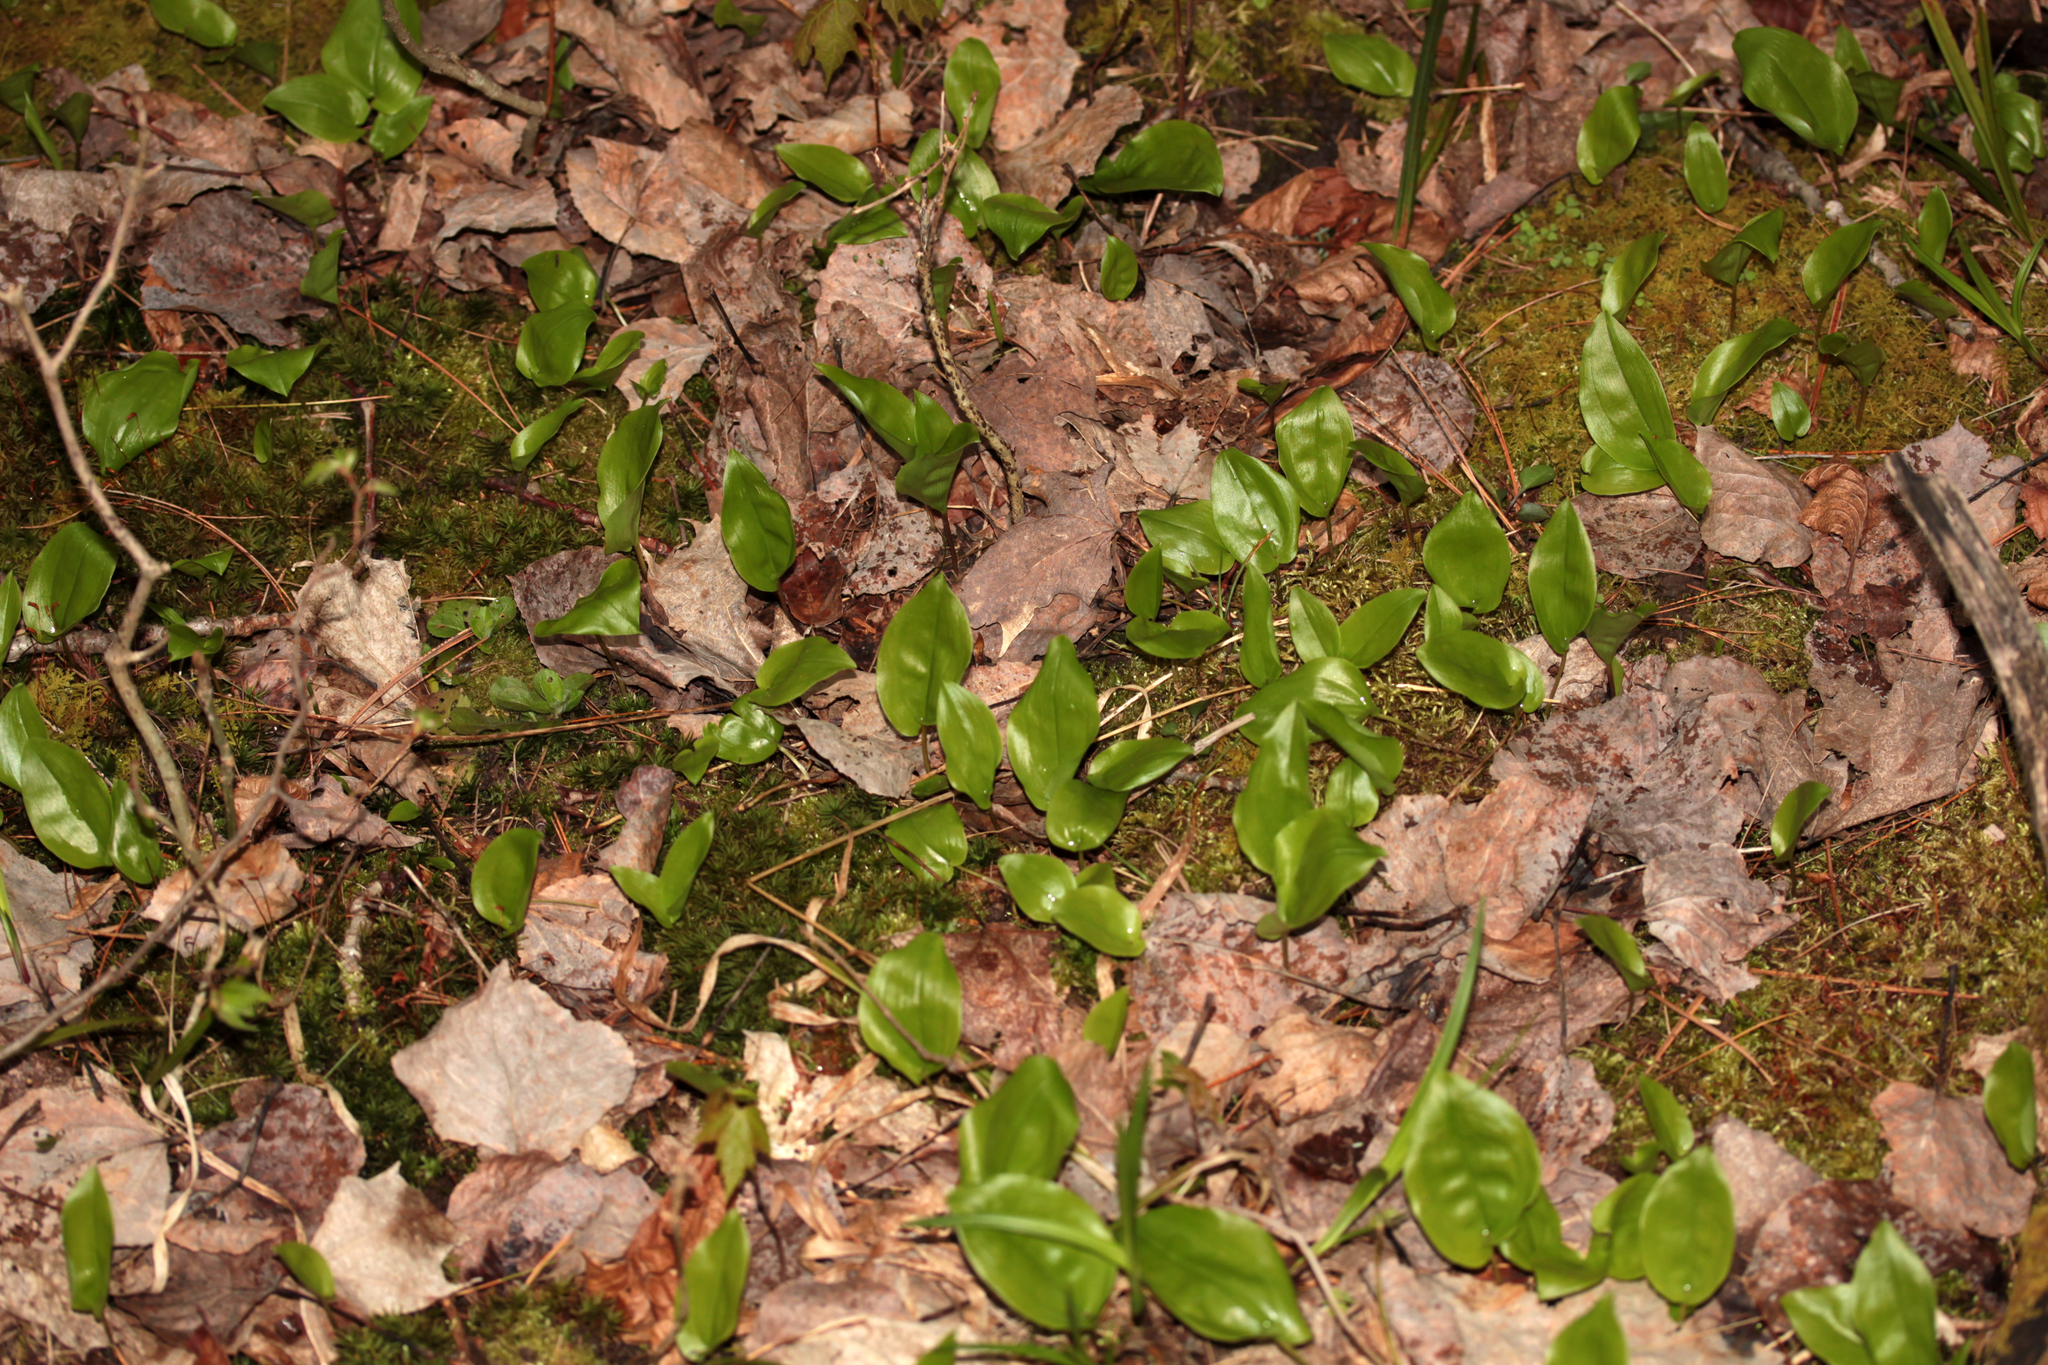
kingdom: Plantae
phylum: Tracheophyta
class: Liliopsida
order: Asparagales
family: Asparagaceae
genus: Maianthemum
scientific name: Maianthemum canadense
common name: False lily-of-the-valley
